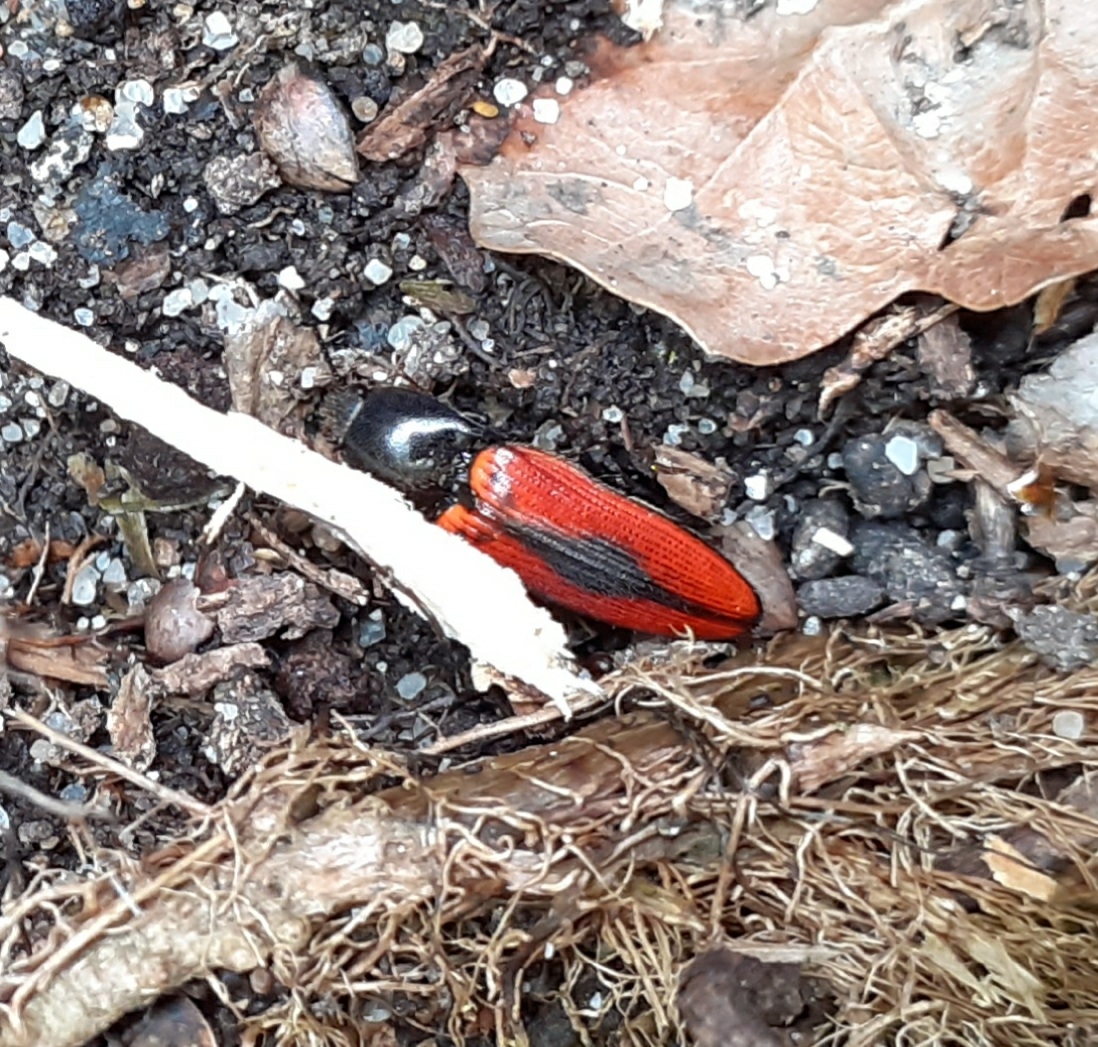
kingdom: Animalia
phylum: Arthropoda
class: Insecta
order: Coleoptera
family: Elateridae
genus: Ampedus
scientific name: Ampedus sanguinolentus
